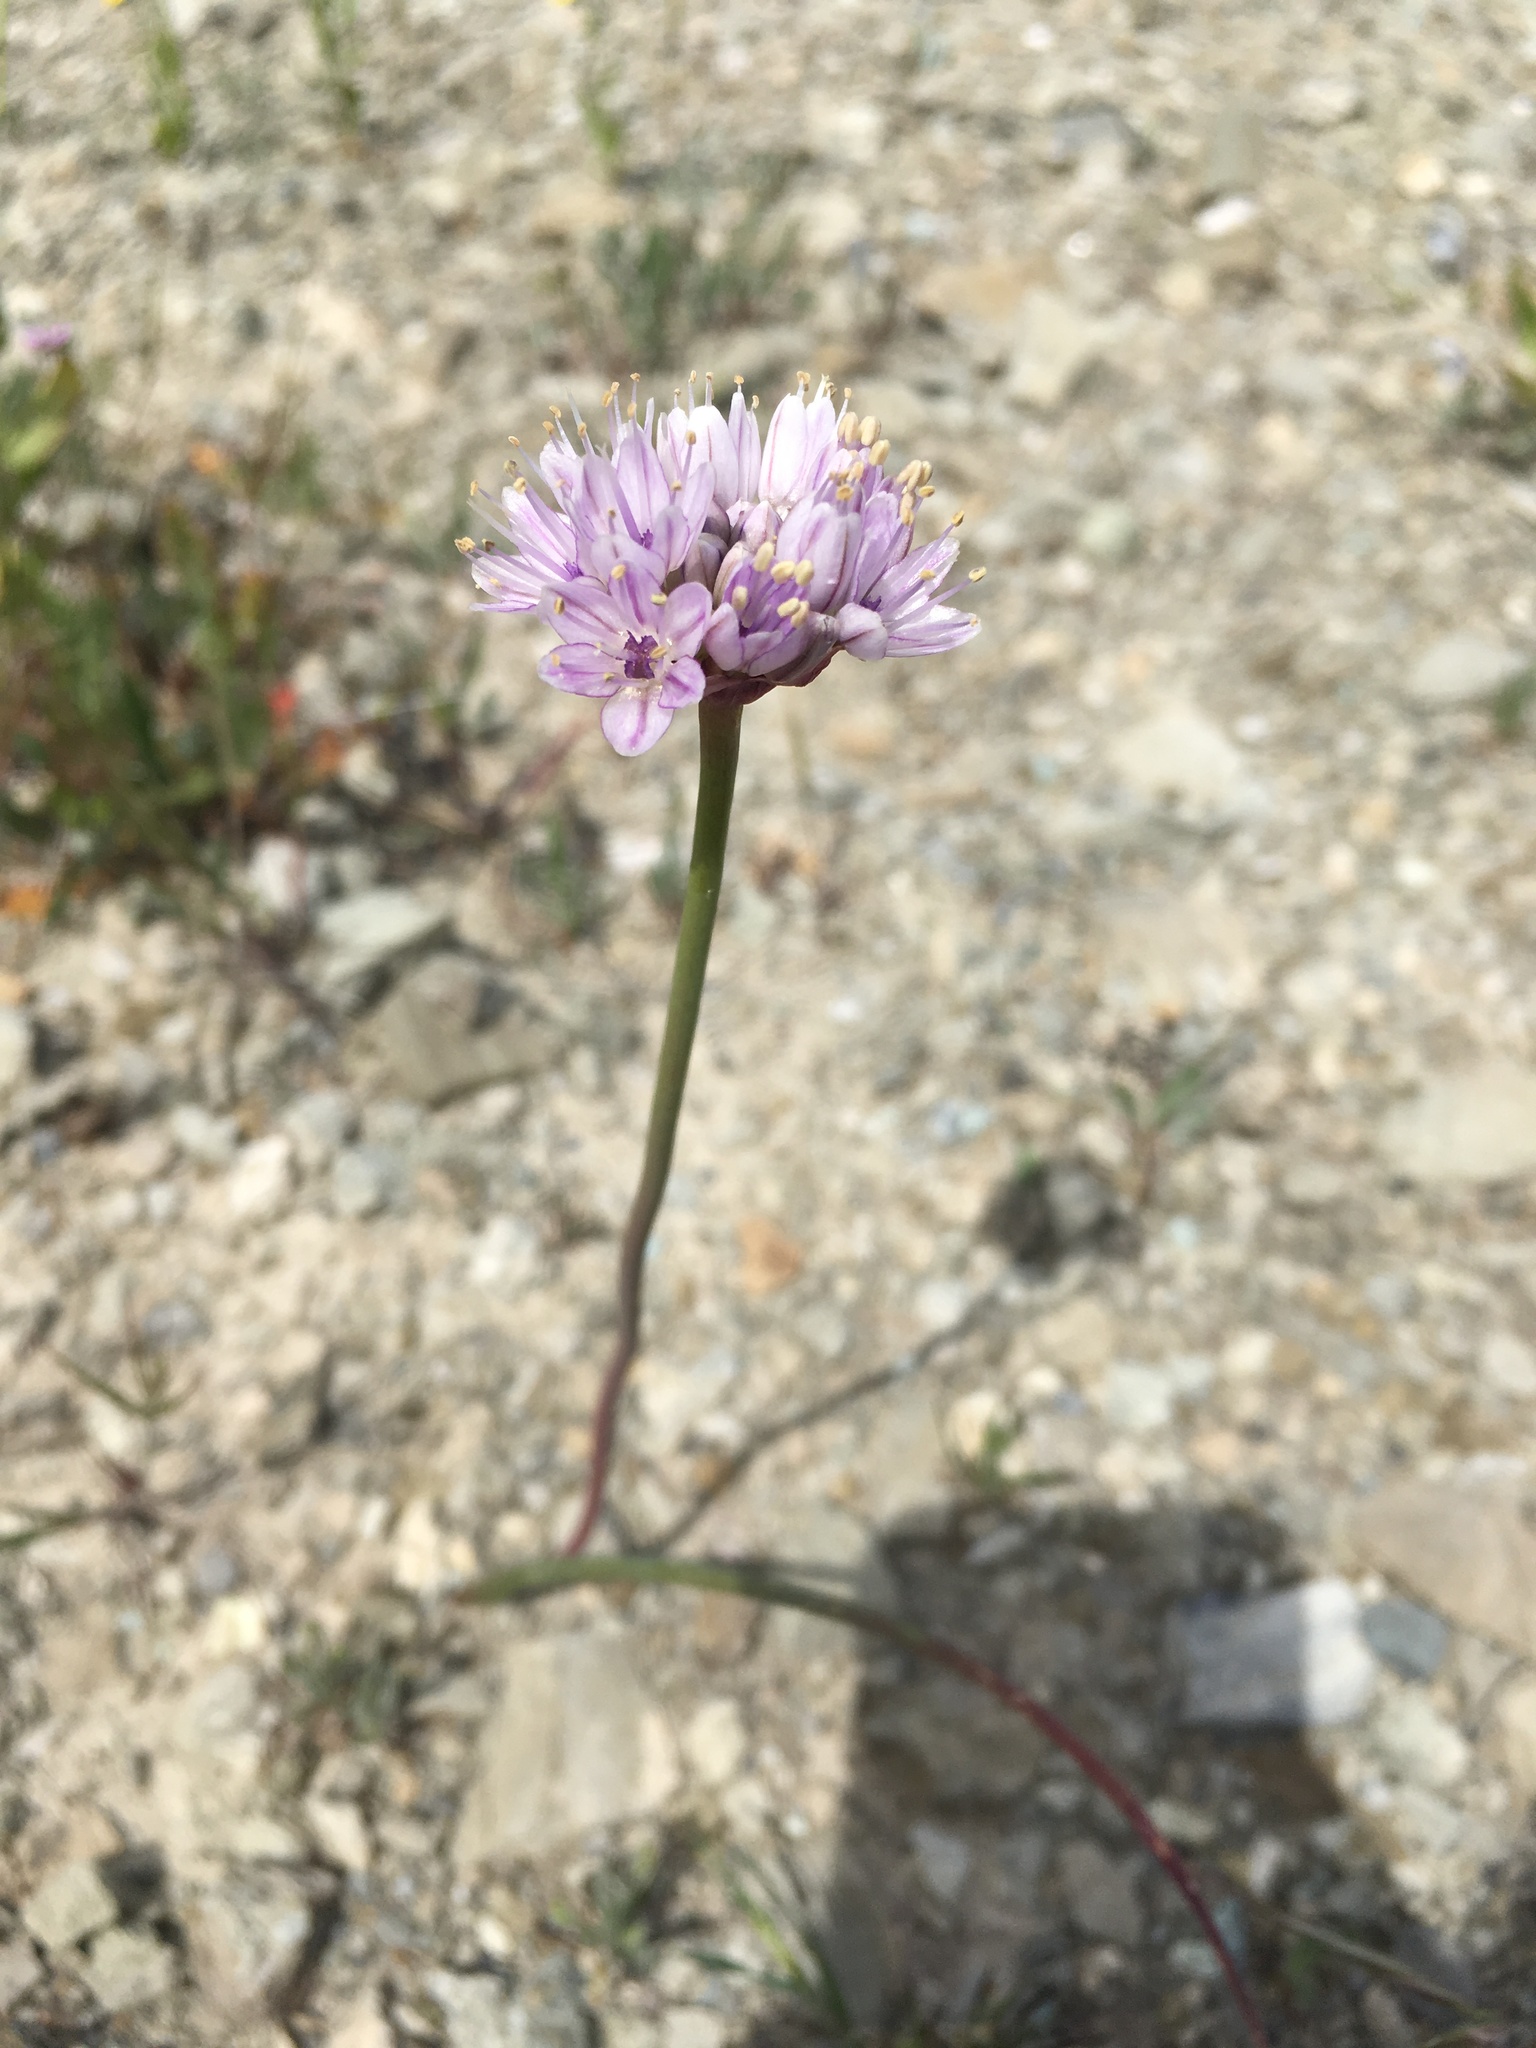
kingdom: Plantae
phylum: Tracheophyta
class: Liliopsida
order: Asparagales
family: Amaryllidaceae
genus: Allium
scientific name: Allium howellii
